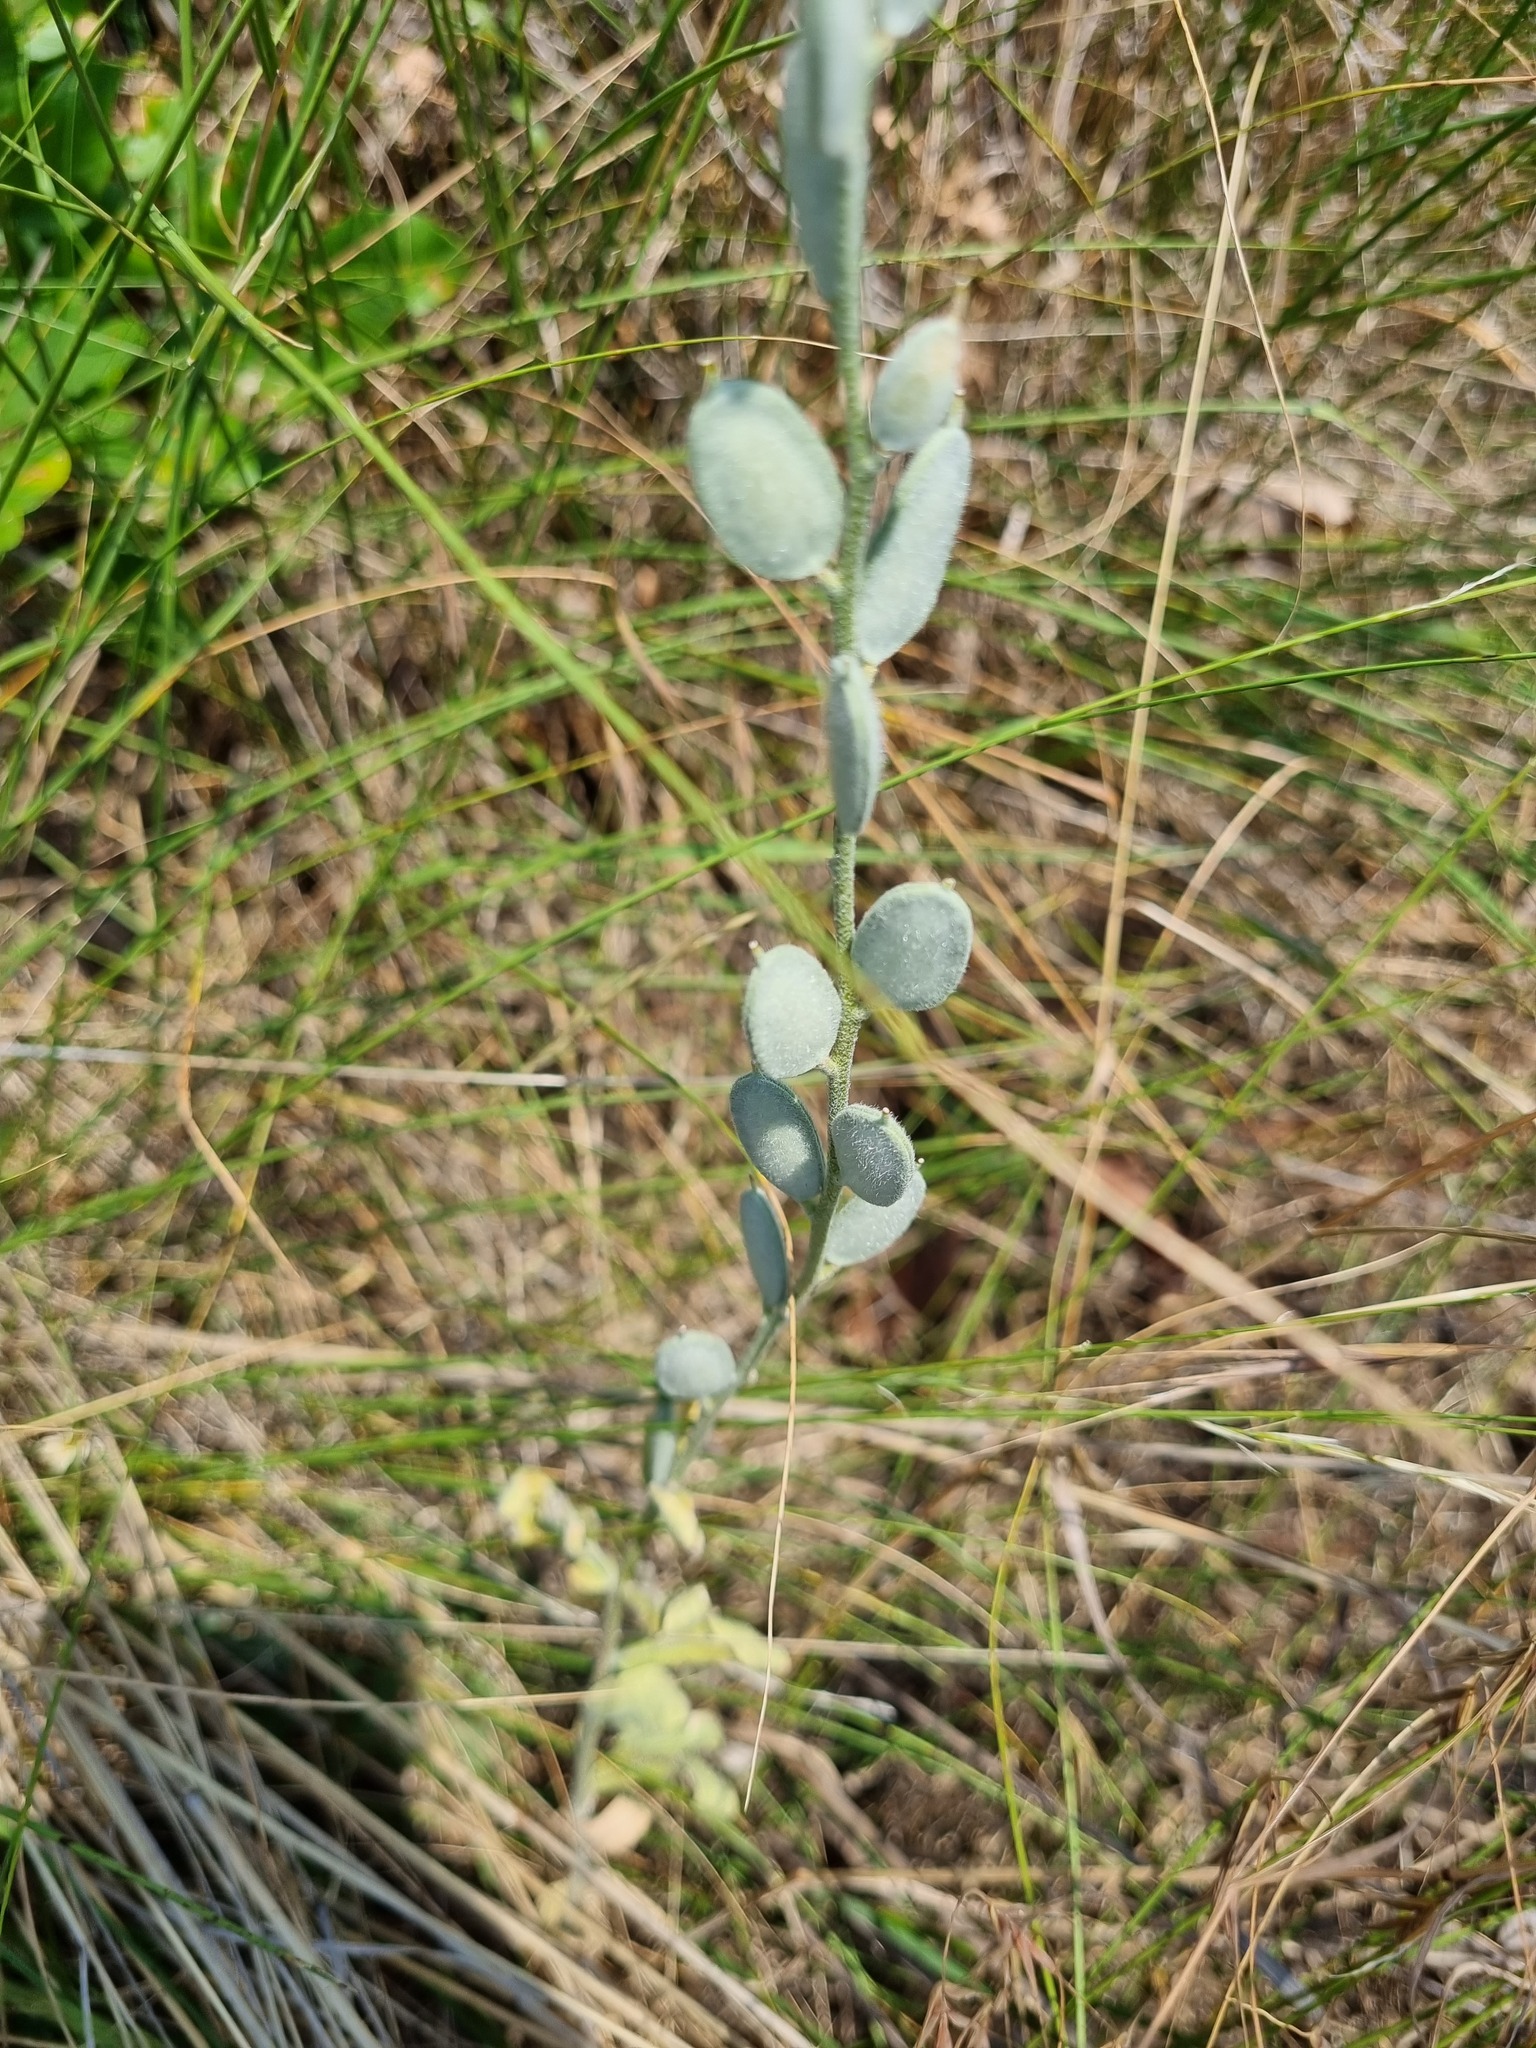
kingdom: Plantae
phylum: Tracheophyta
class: Magnoliopsida
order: Brassicales
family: Brassicaceae
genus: Fibigia
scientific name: Fibigia clypeata
